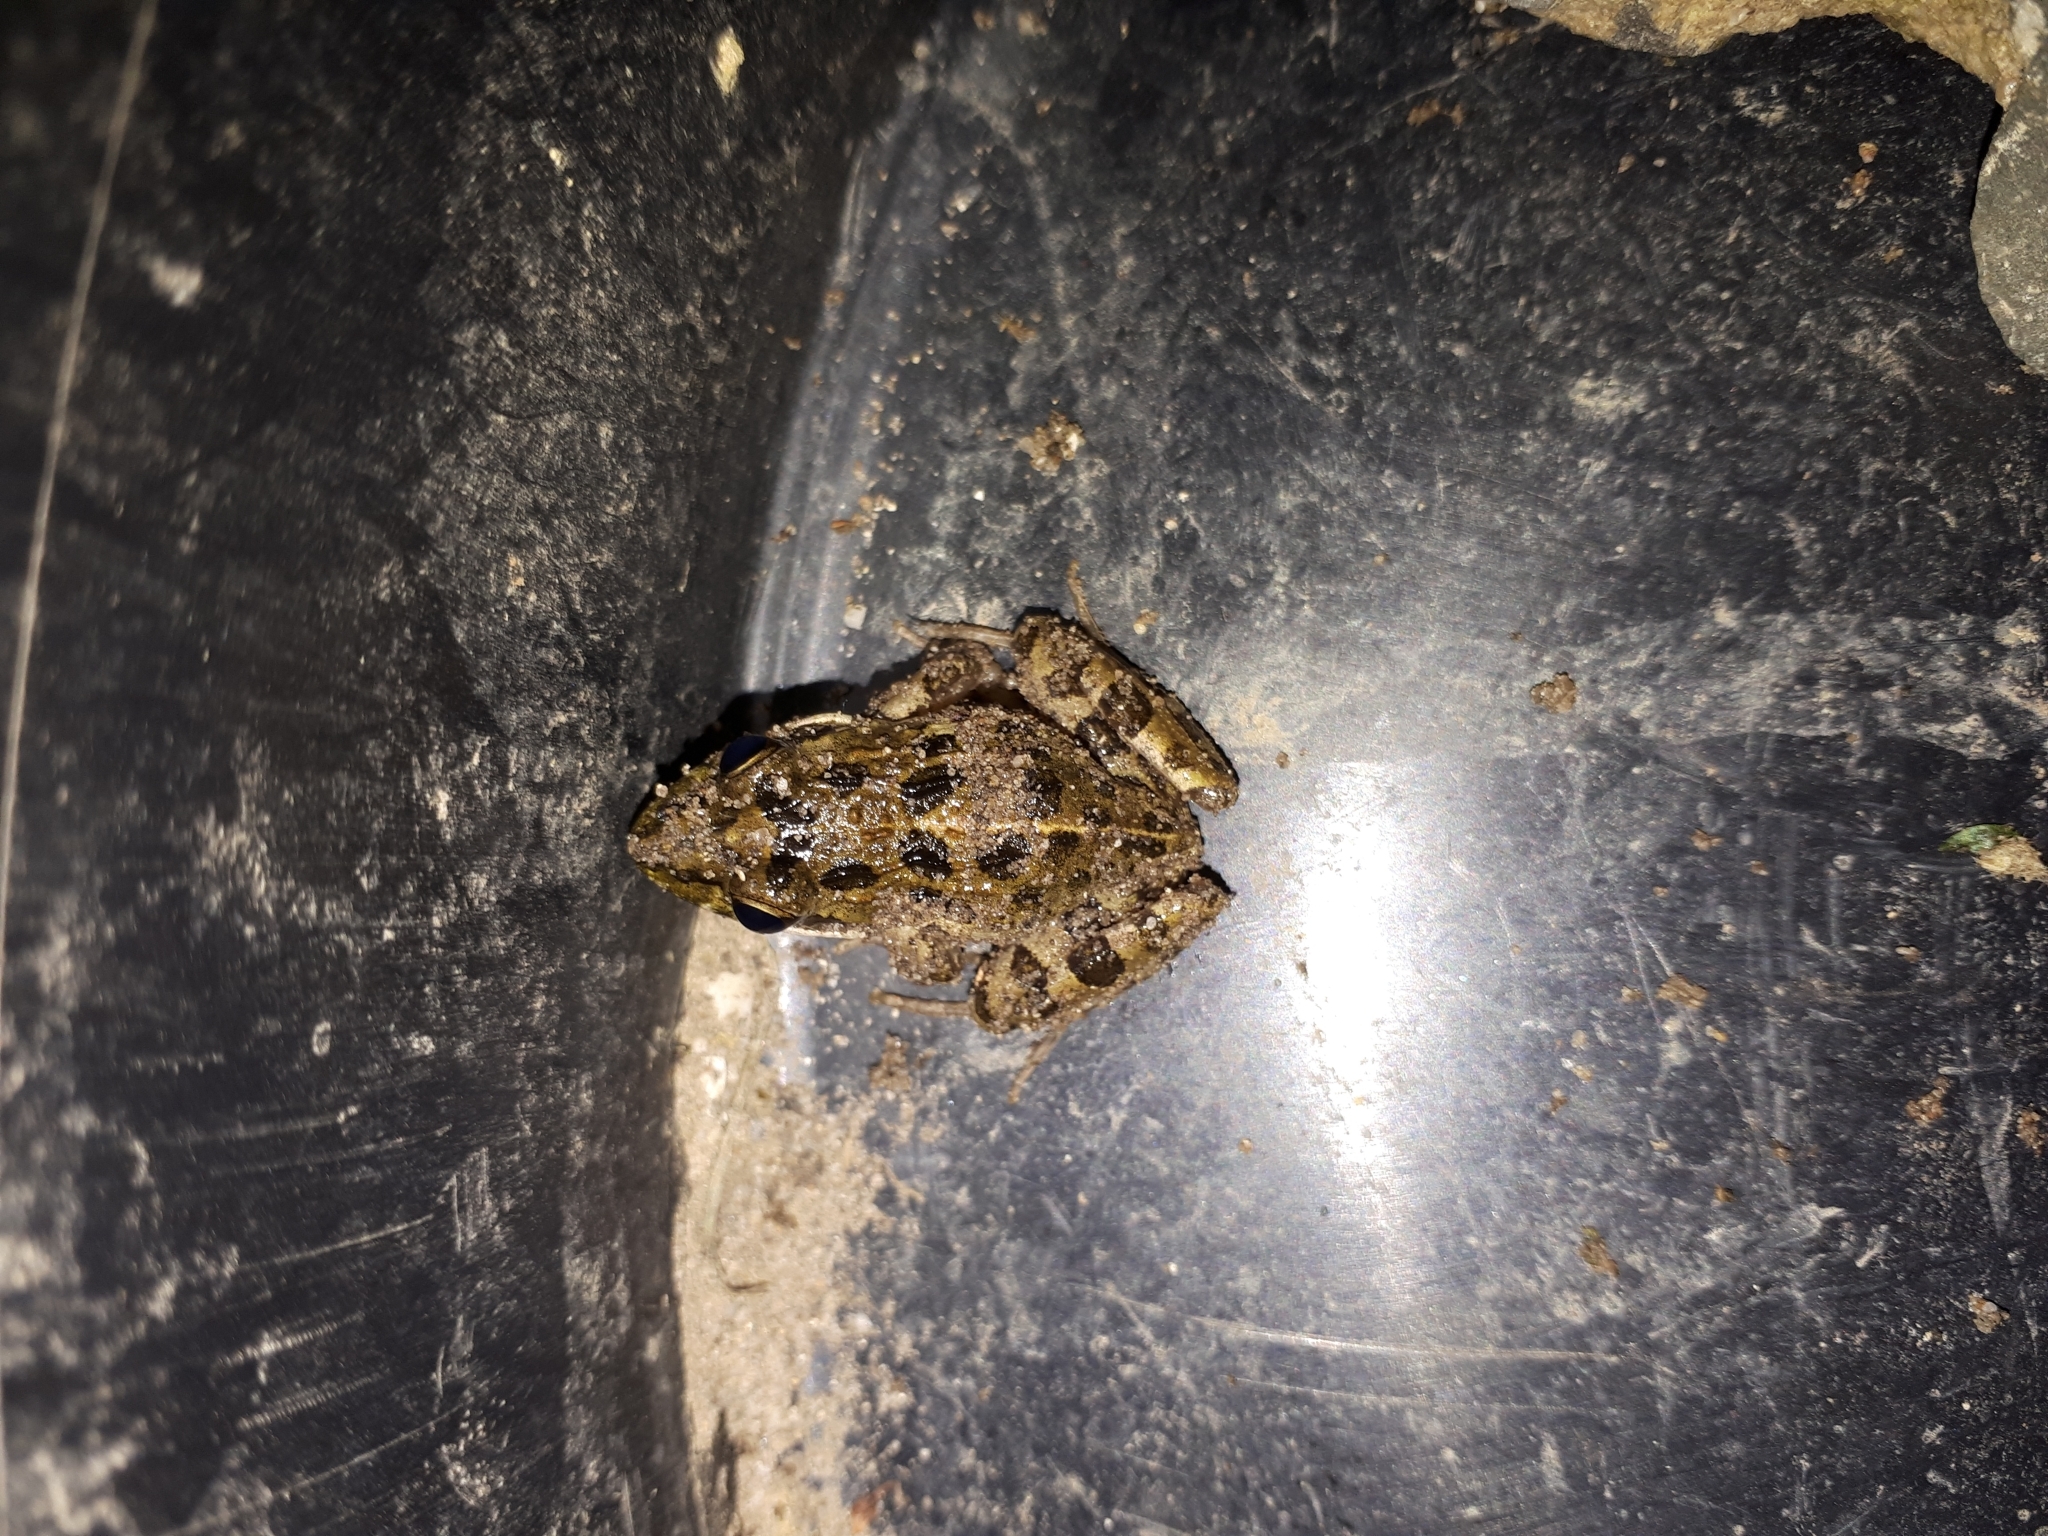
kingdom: Animalia
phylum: Chordata
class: Amphibia
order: Anura
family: Pyxicephalidae
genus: Strongylopus
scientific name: Strongylopus grayii
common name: Gray's stream frog
